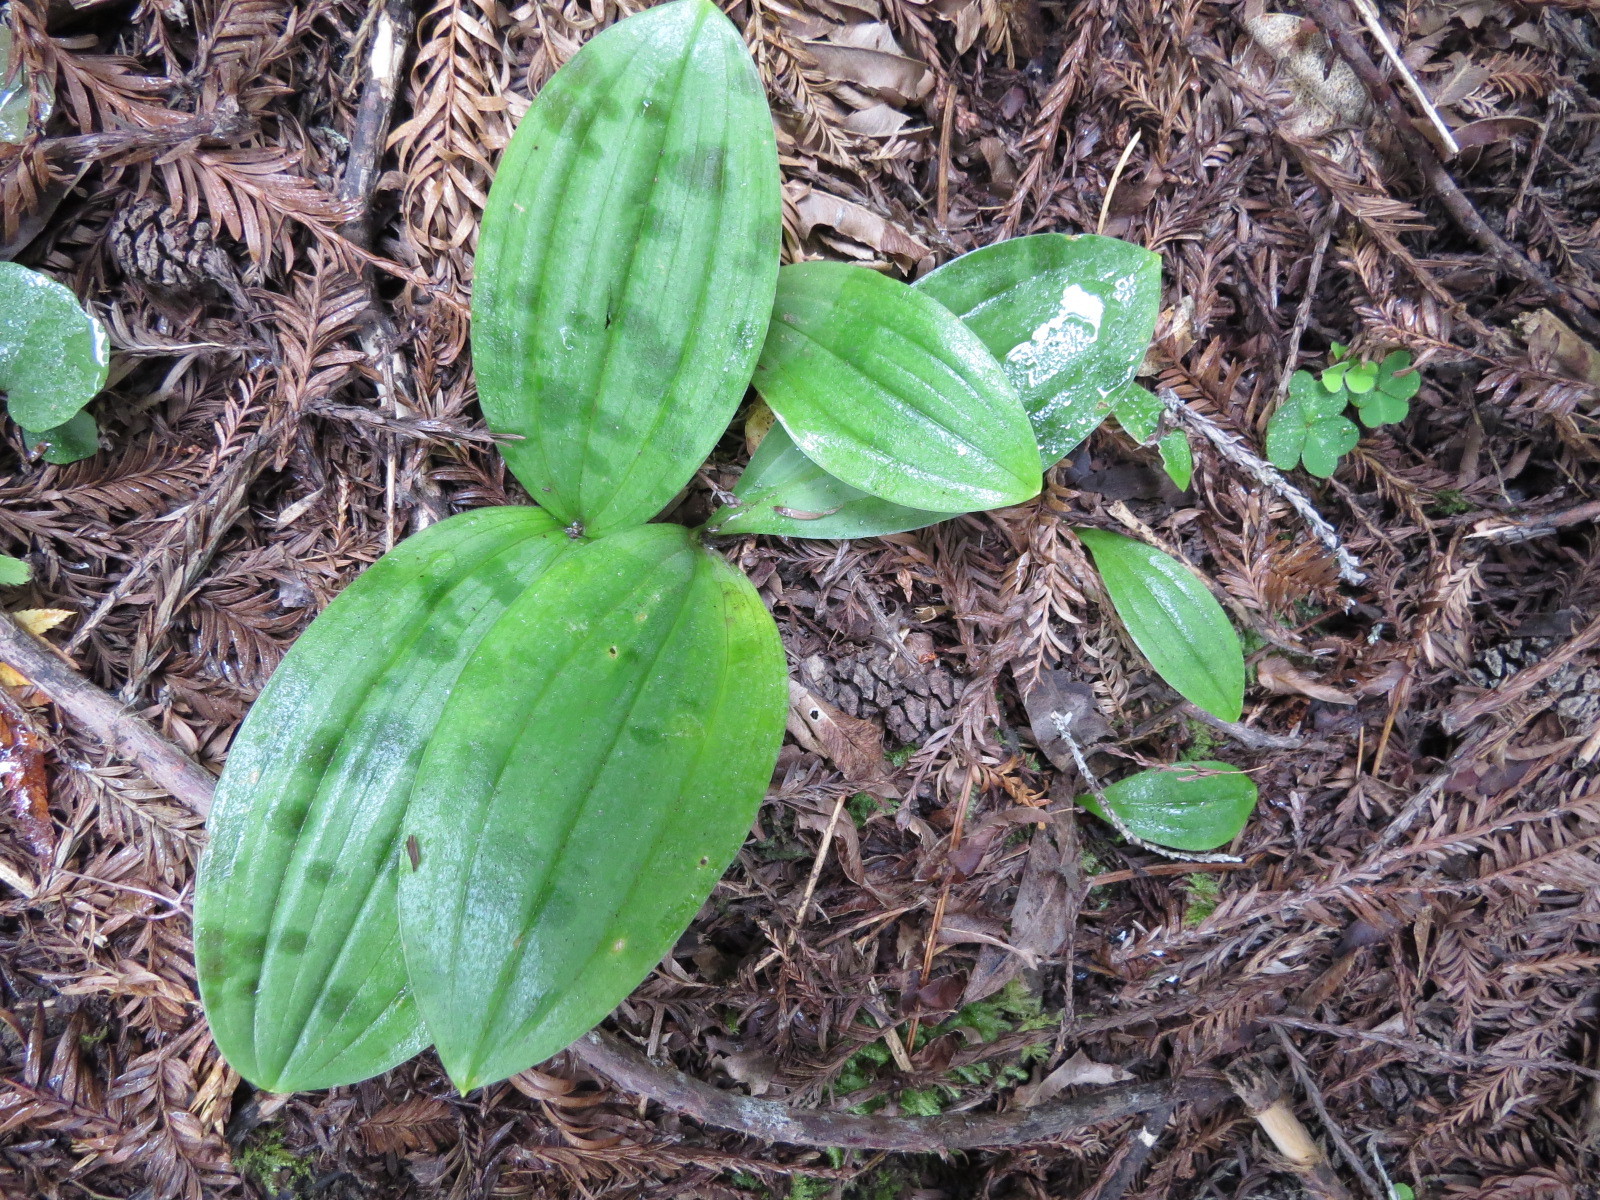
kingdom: Plantae
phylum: Tracheophyta
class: Liliopsida
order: Liliales
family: Liliaceae
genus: Scoliopus
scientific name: Scoliopus bigelovii
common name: Foetid adder's-tongue
